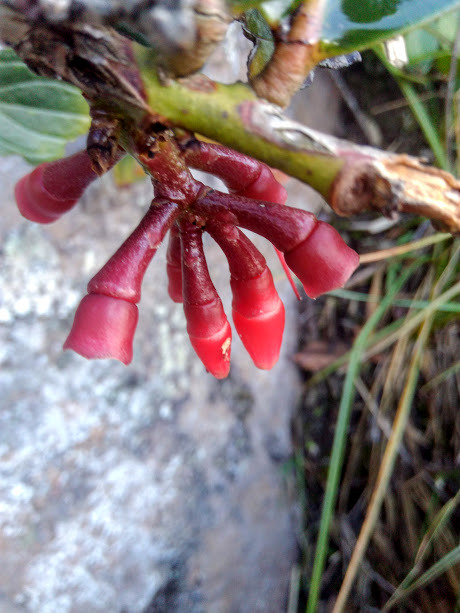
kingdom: Plantae
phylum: Tracheophyta
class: Magnoliopsida
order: Ericales
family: Ericaceae
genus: Macleania
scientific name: Macleania rupestris
